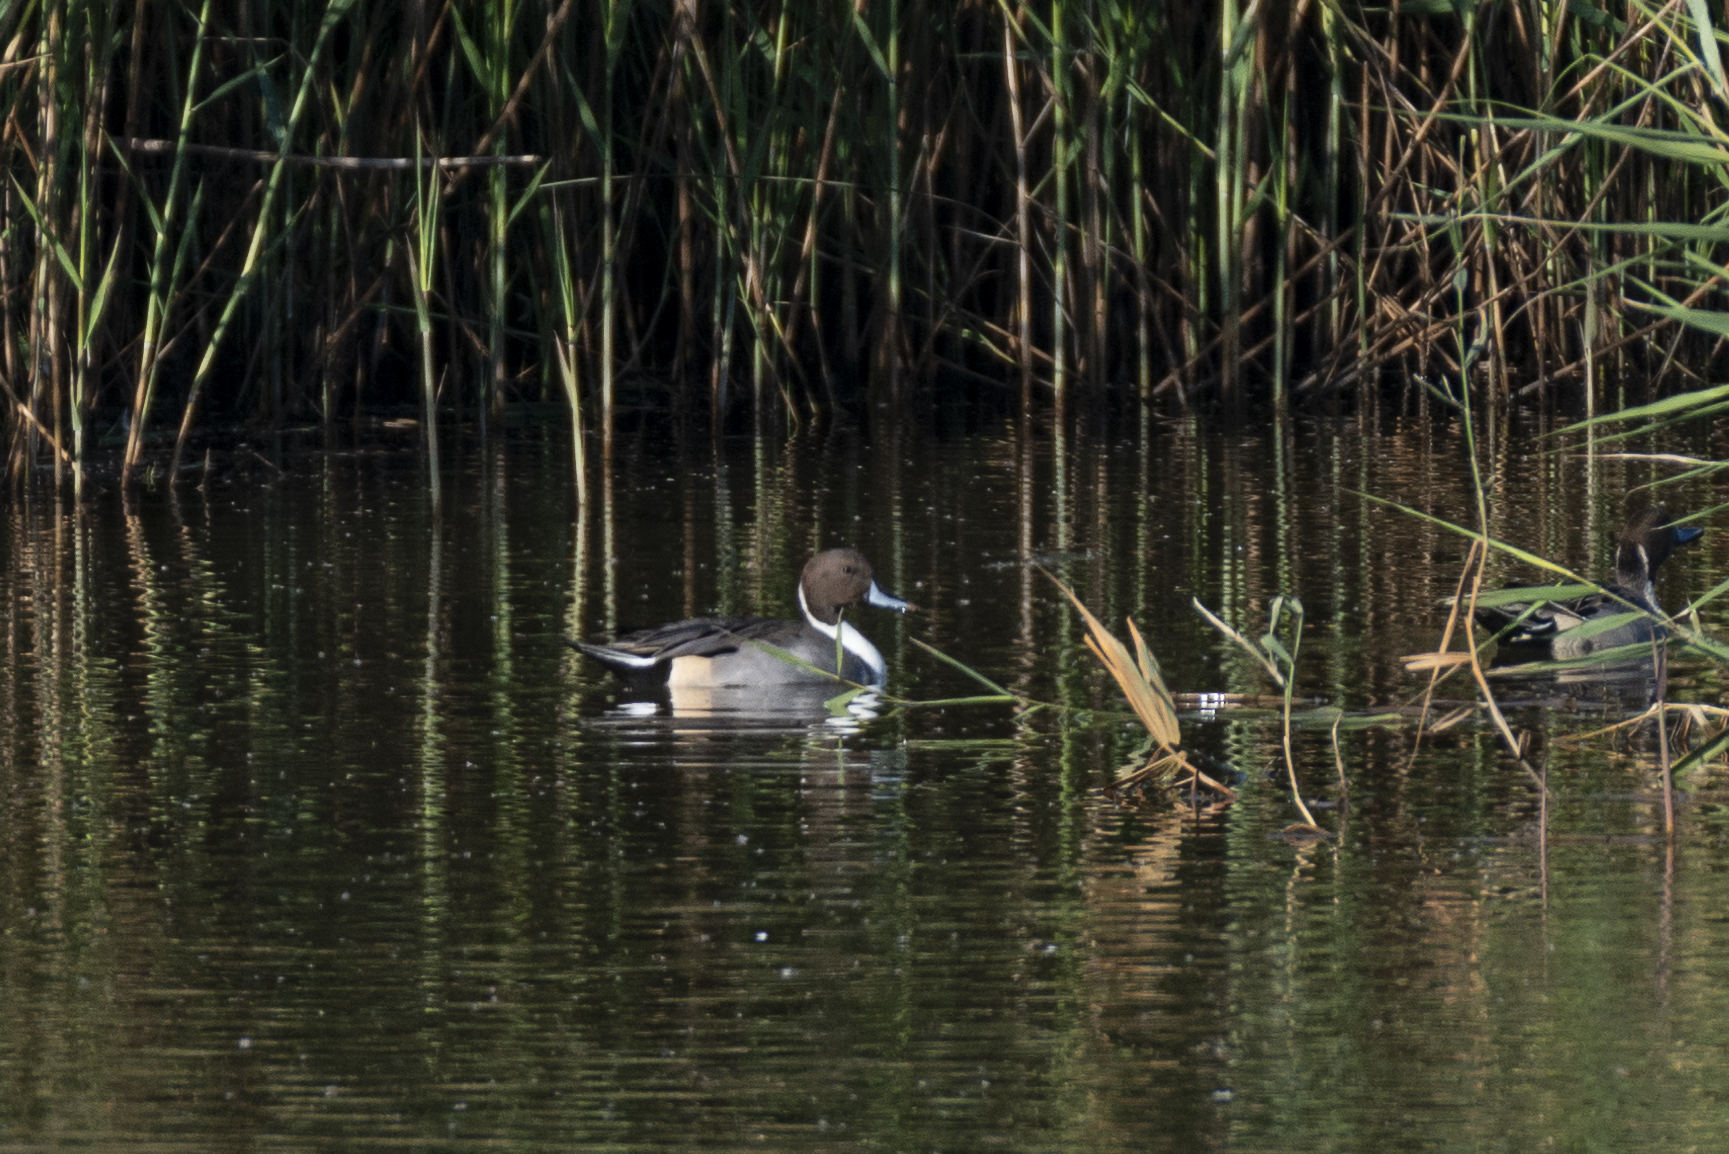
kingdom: Animalia
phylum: Chordata
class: Aves
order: Anseriformes
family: Anatidae
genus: Anas
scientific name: Anas acuta
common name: Northern pintail
